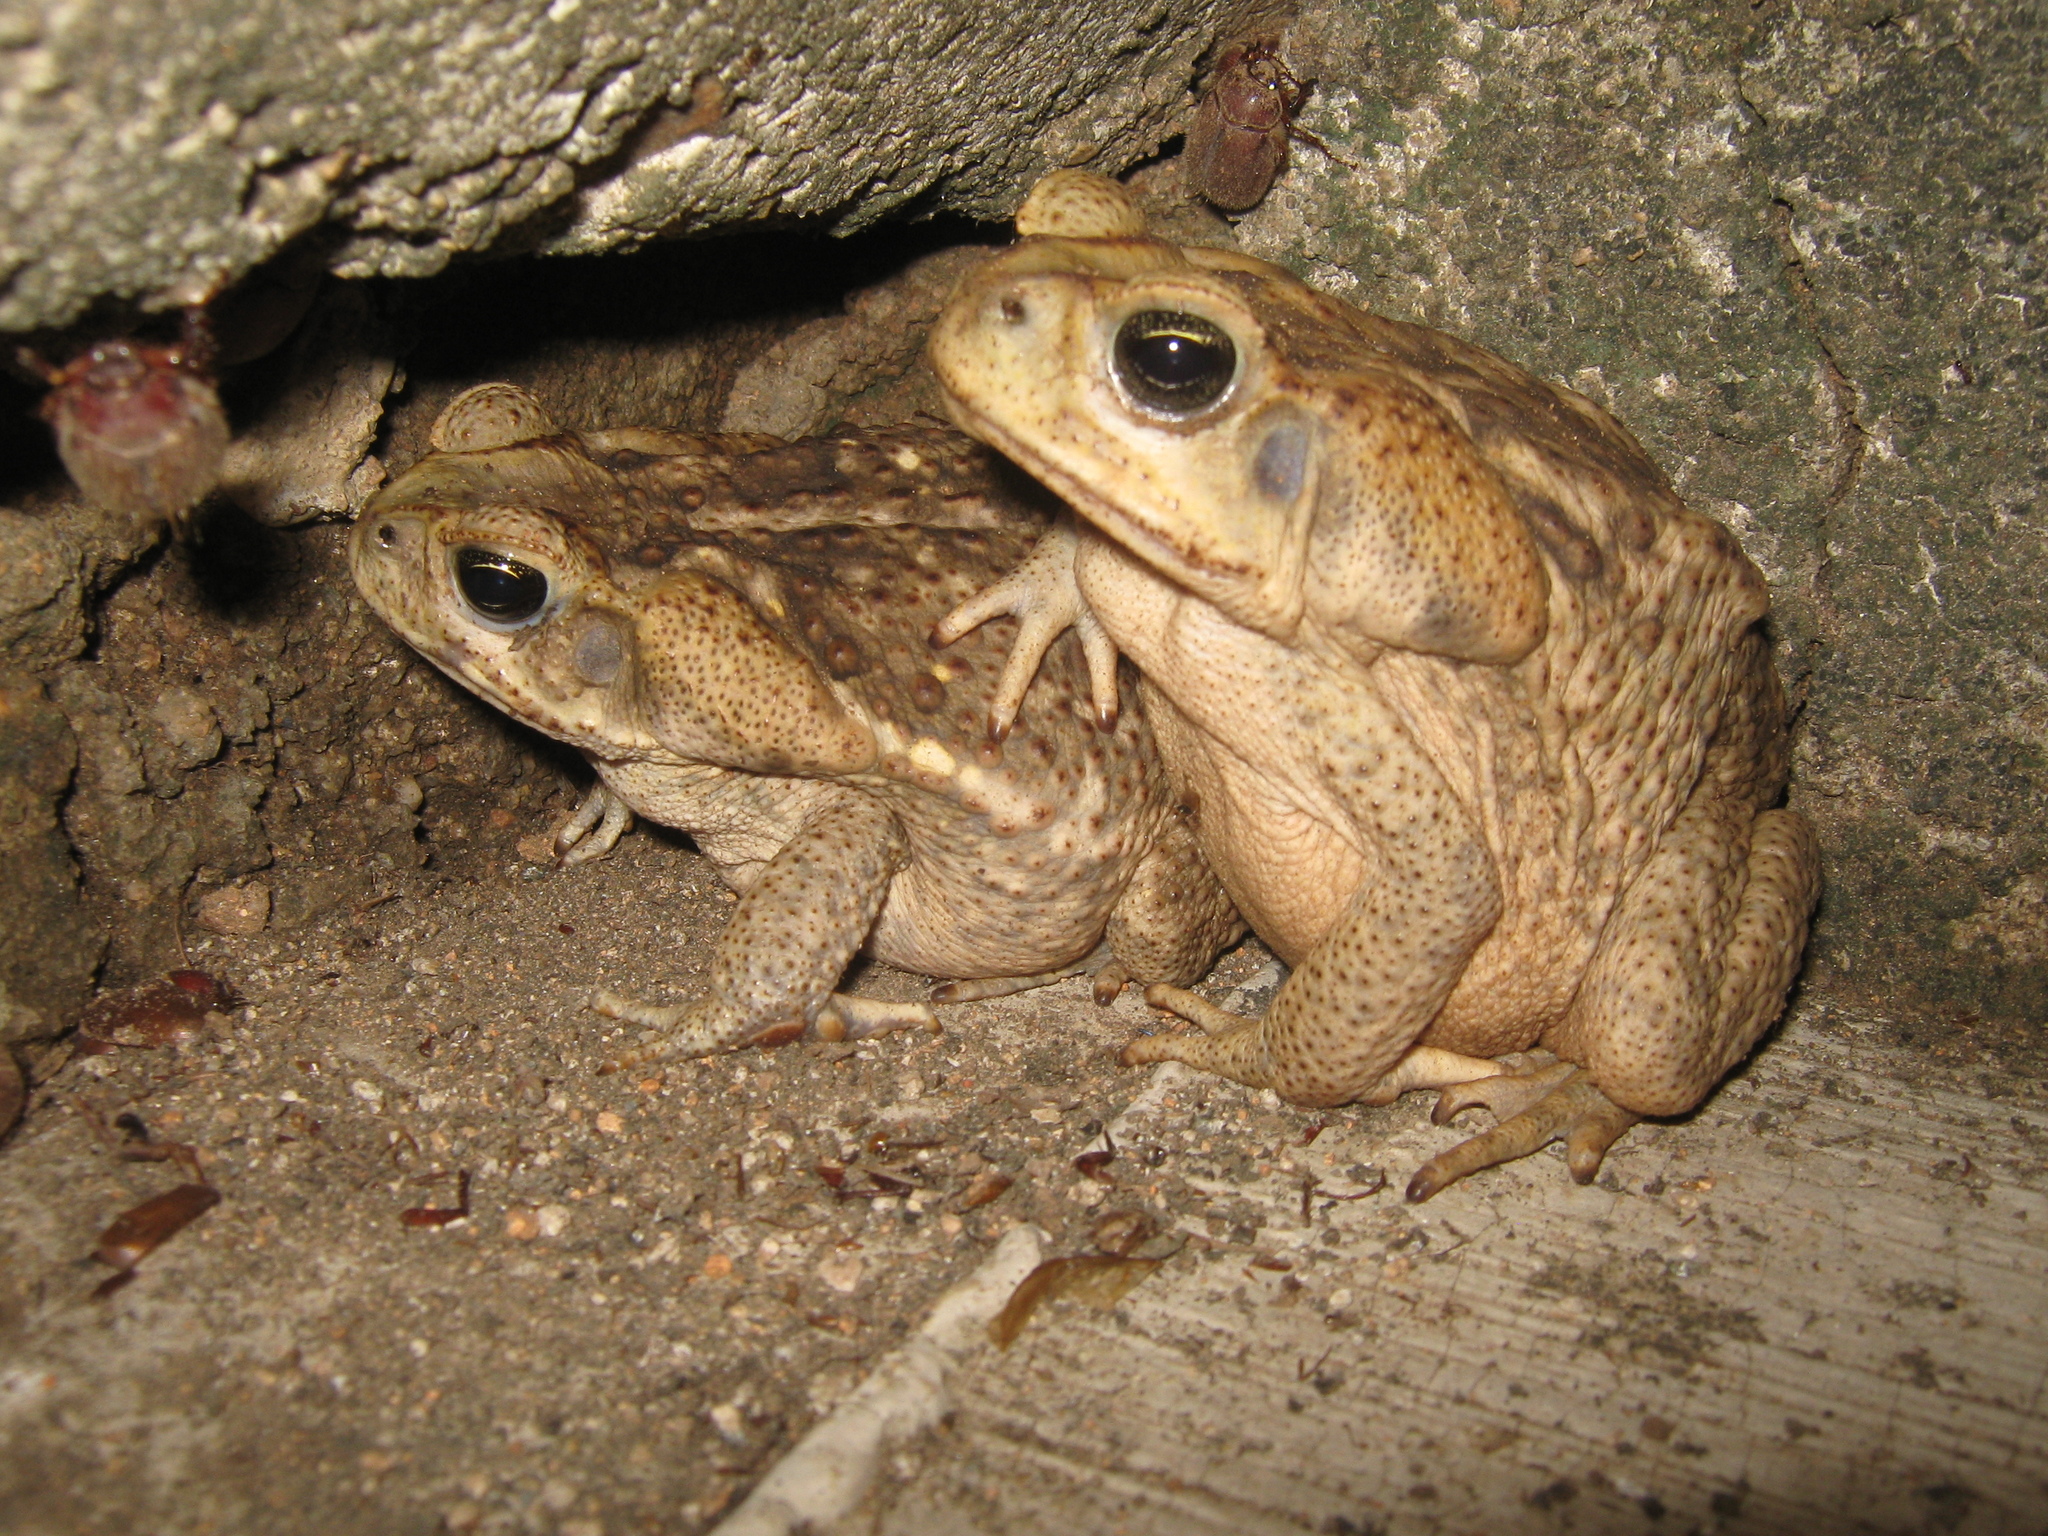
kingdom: Animalia
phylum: Chordata
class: Amphibia
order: Anura
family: Bufonidae
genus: Rhinella
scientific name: Rhinella horribilis
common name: Mesoamerican cane toad
